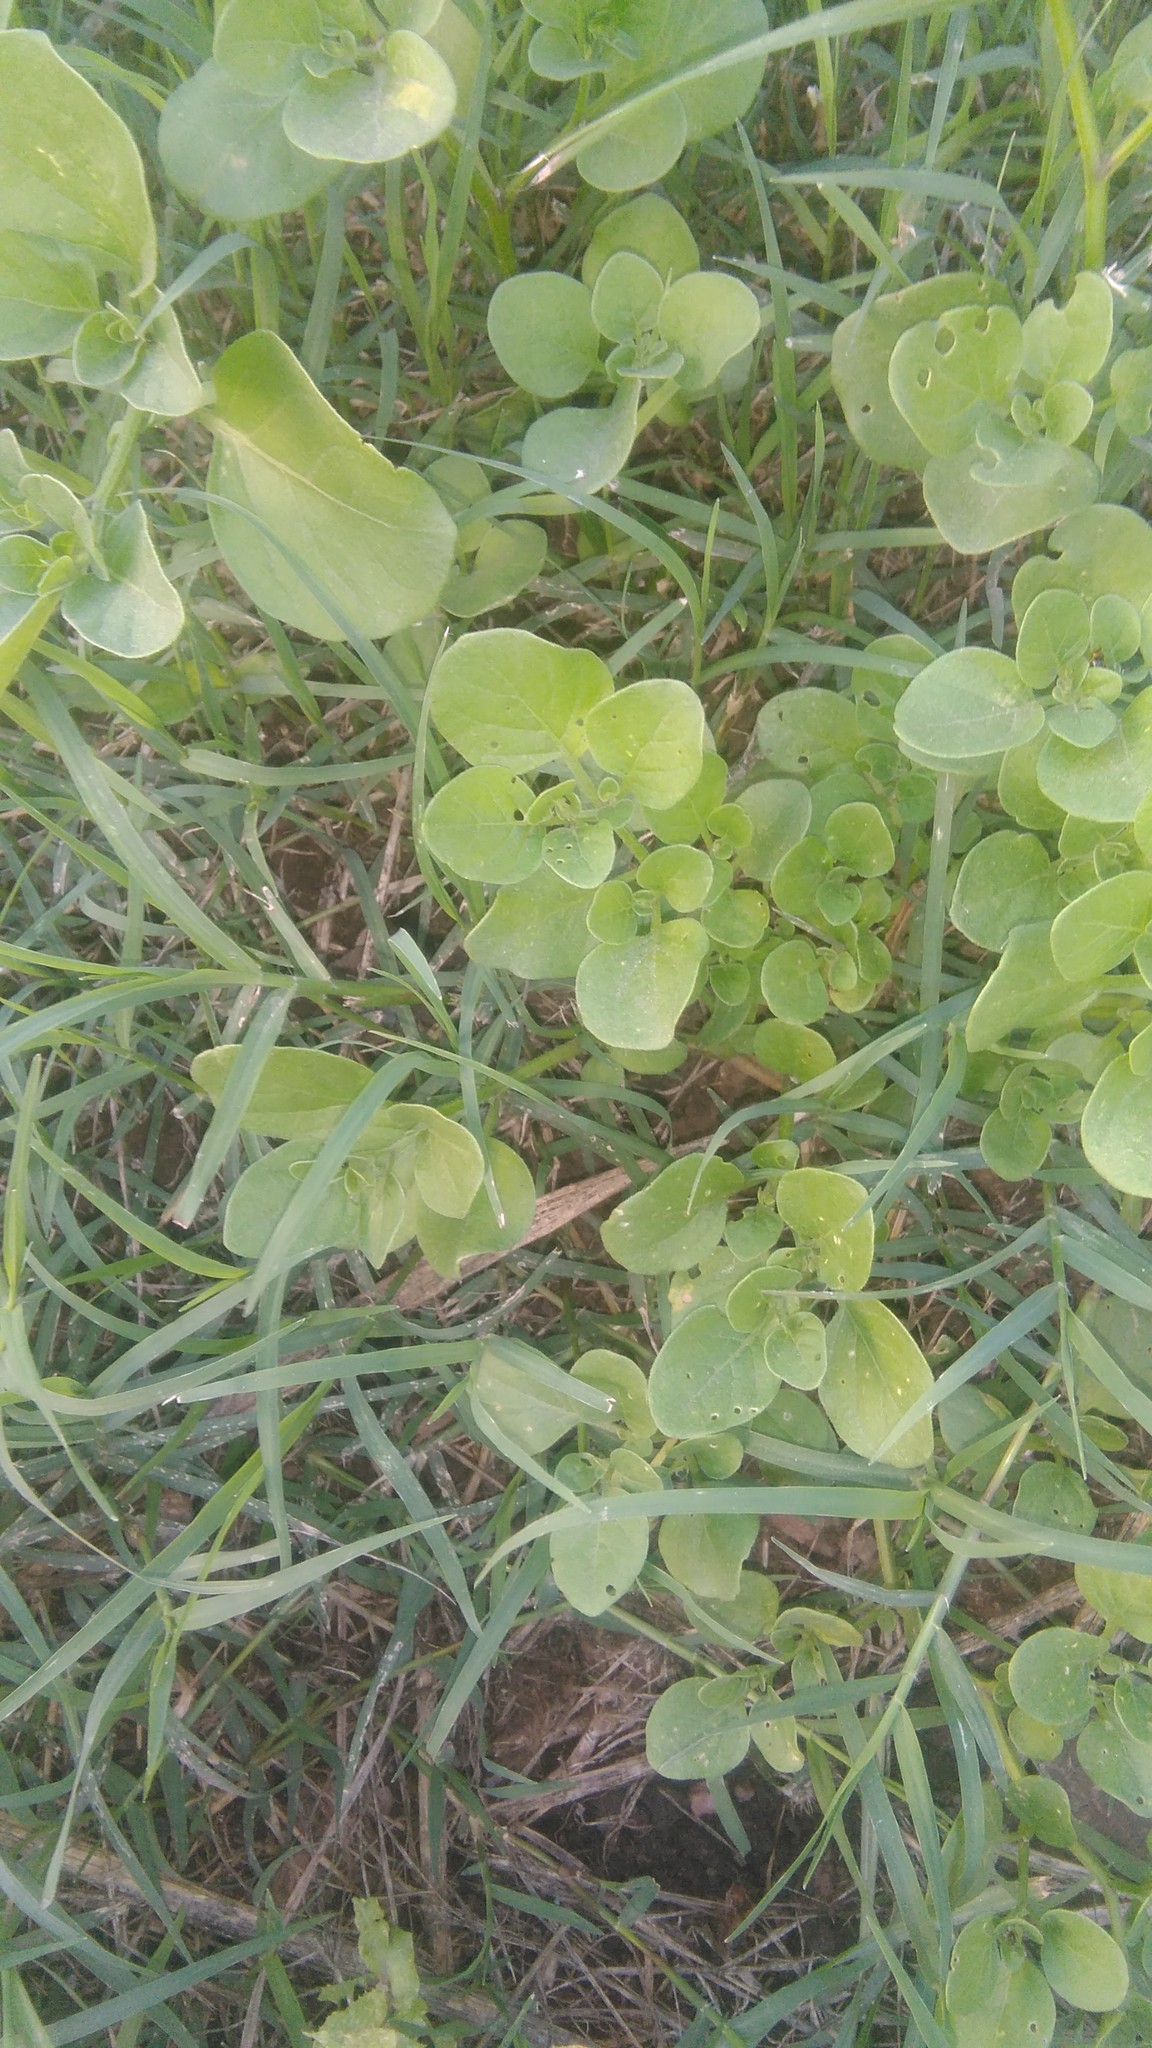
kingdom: Plantae
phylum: Tracheophyta
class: Magnoliopsida
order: Solanales
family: Solanaceae
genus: Salpichroa
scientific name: Salpichroa origanifolia
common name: Lily-of-the-valley-vine
